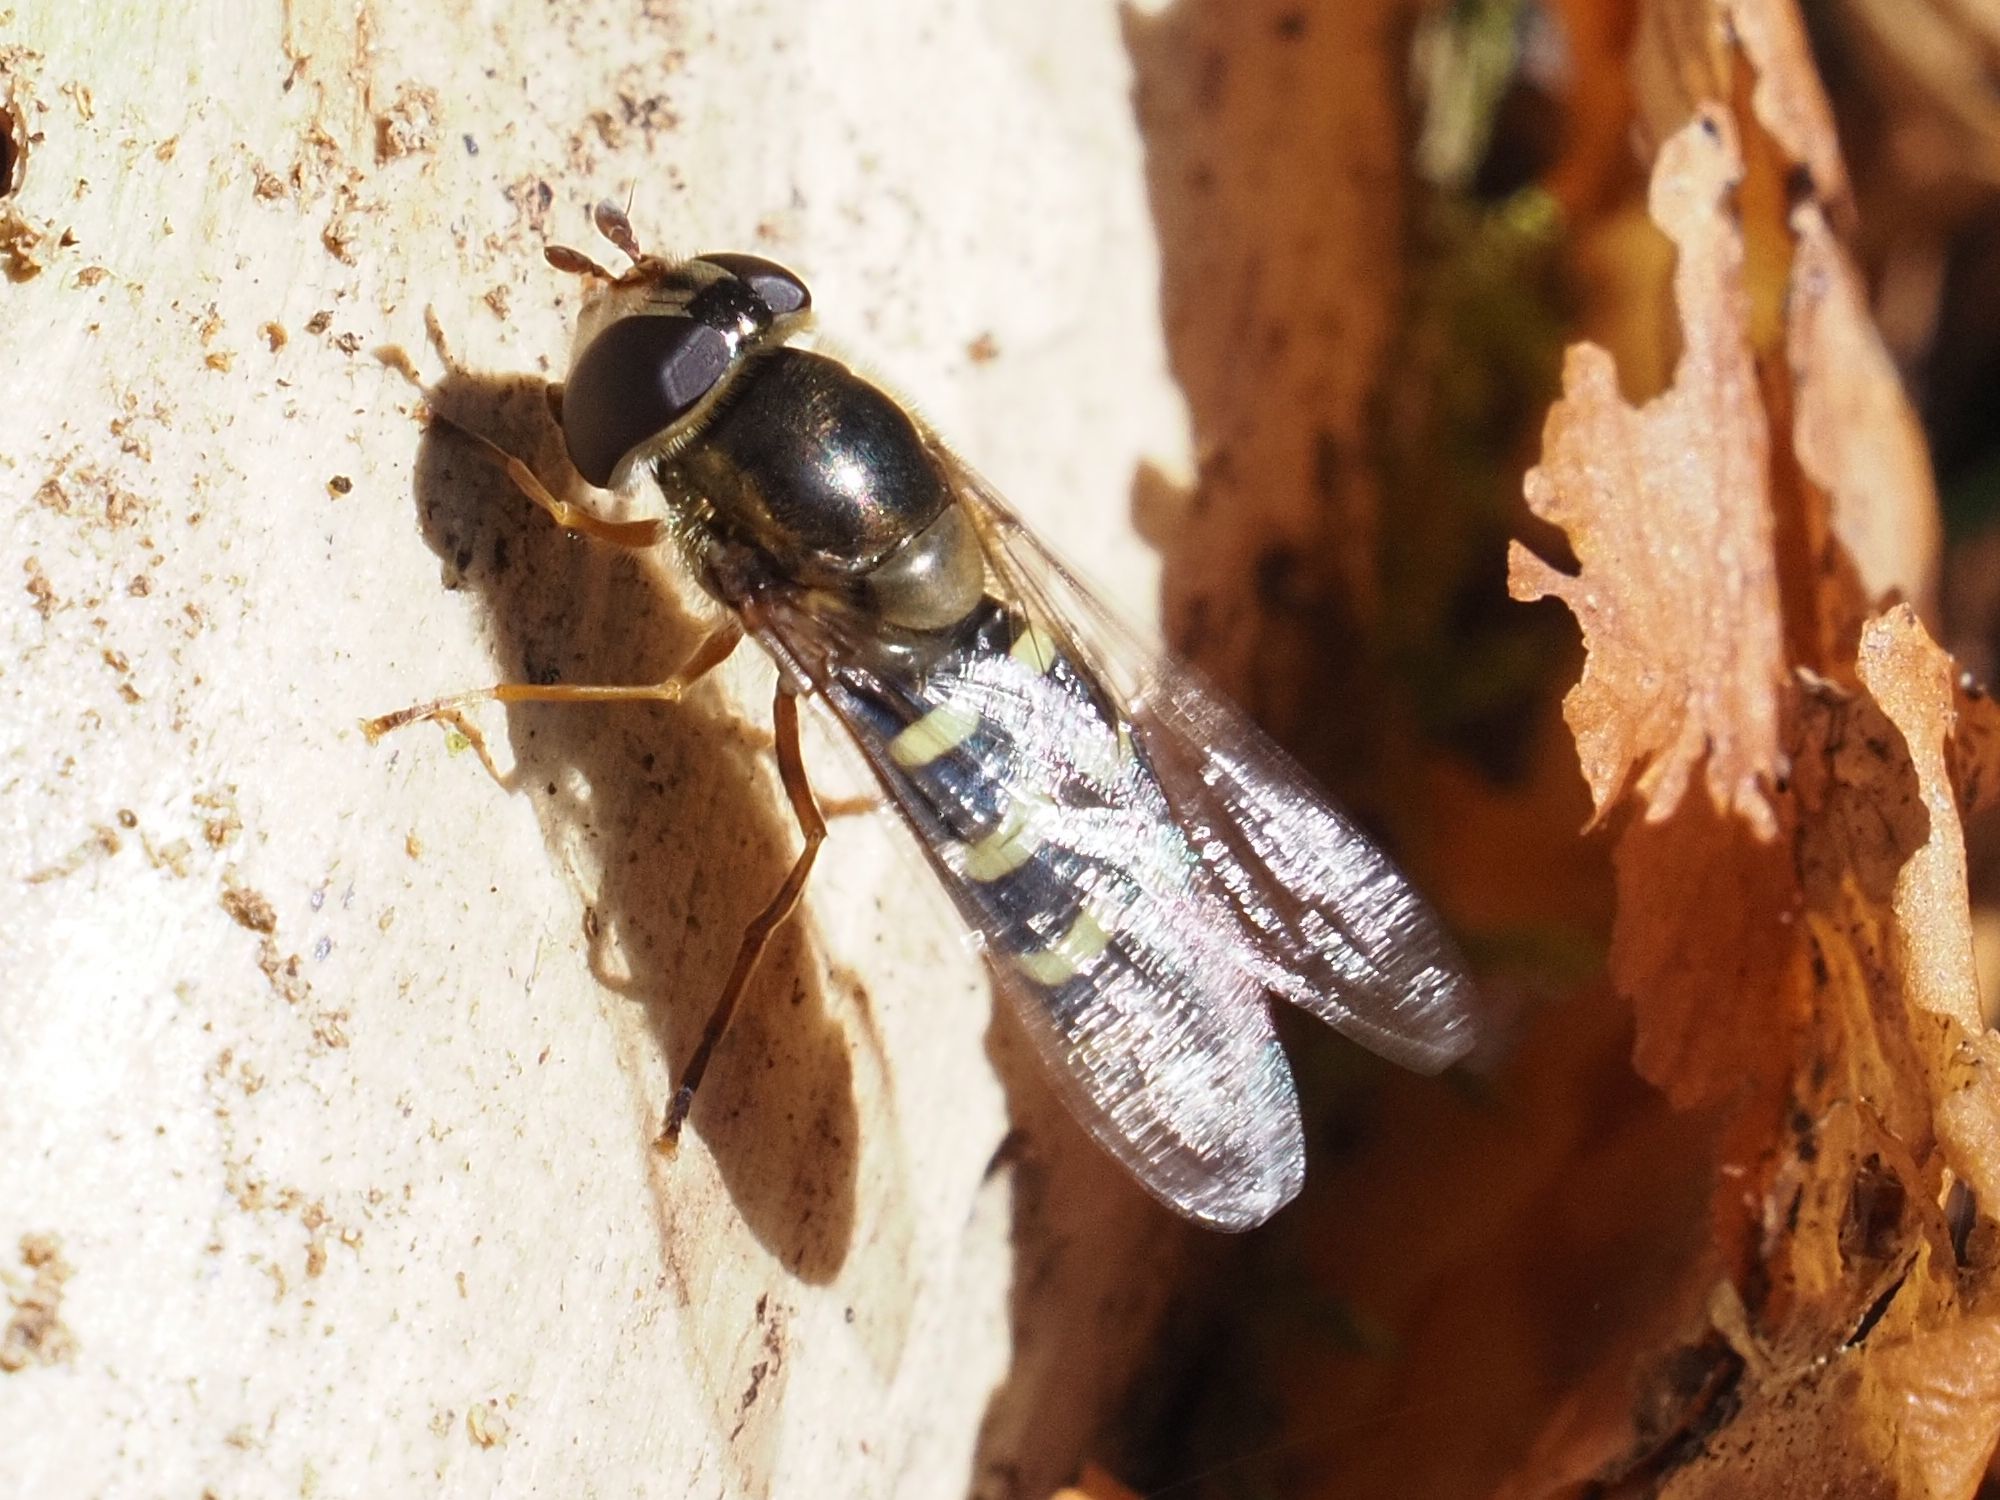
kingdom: Animalia
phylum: Arthropoda
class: Insecta
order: Diptera
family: Syrphidae
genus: Lapposyrphus
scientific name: Lapposyrphus lapponicus
